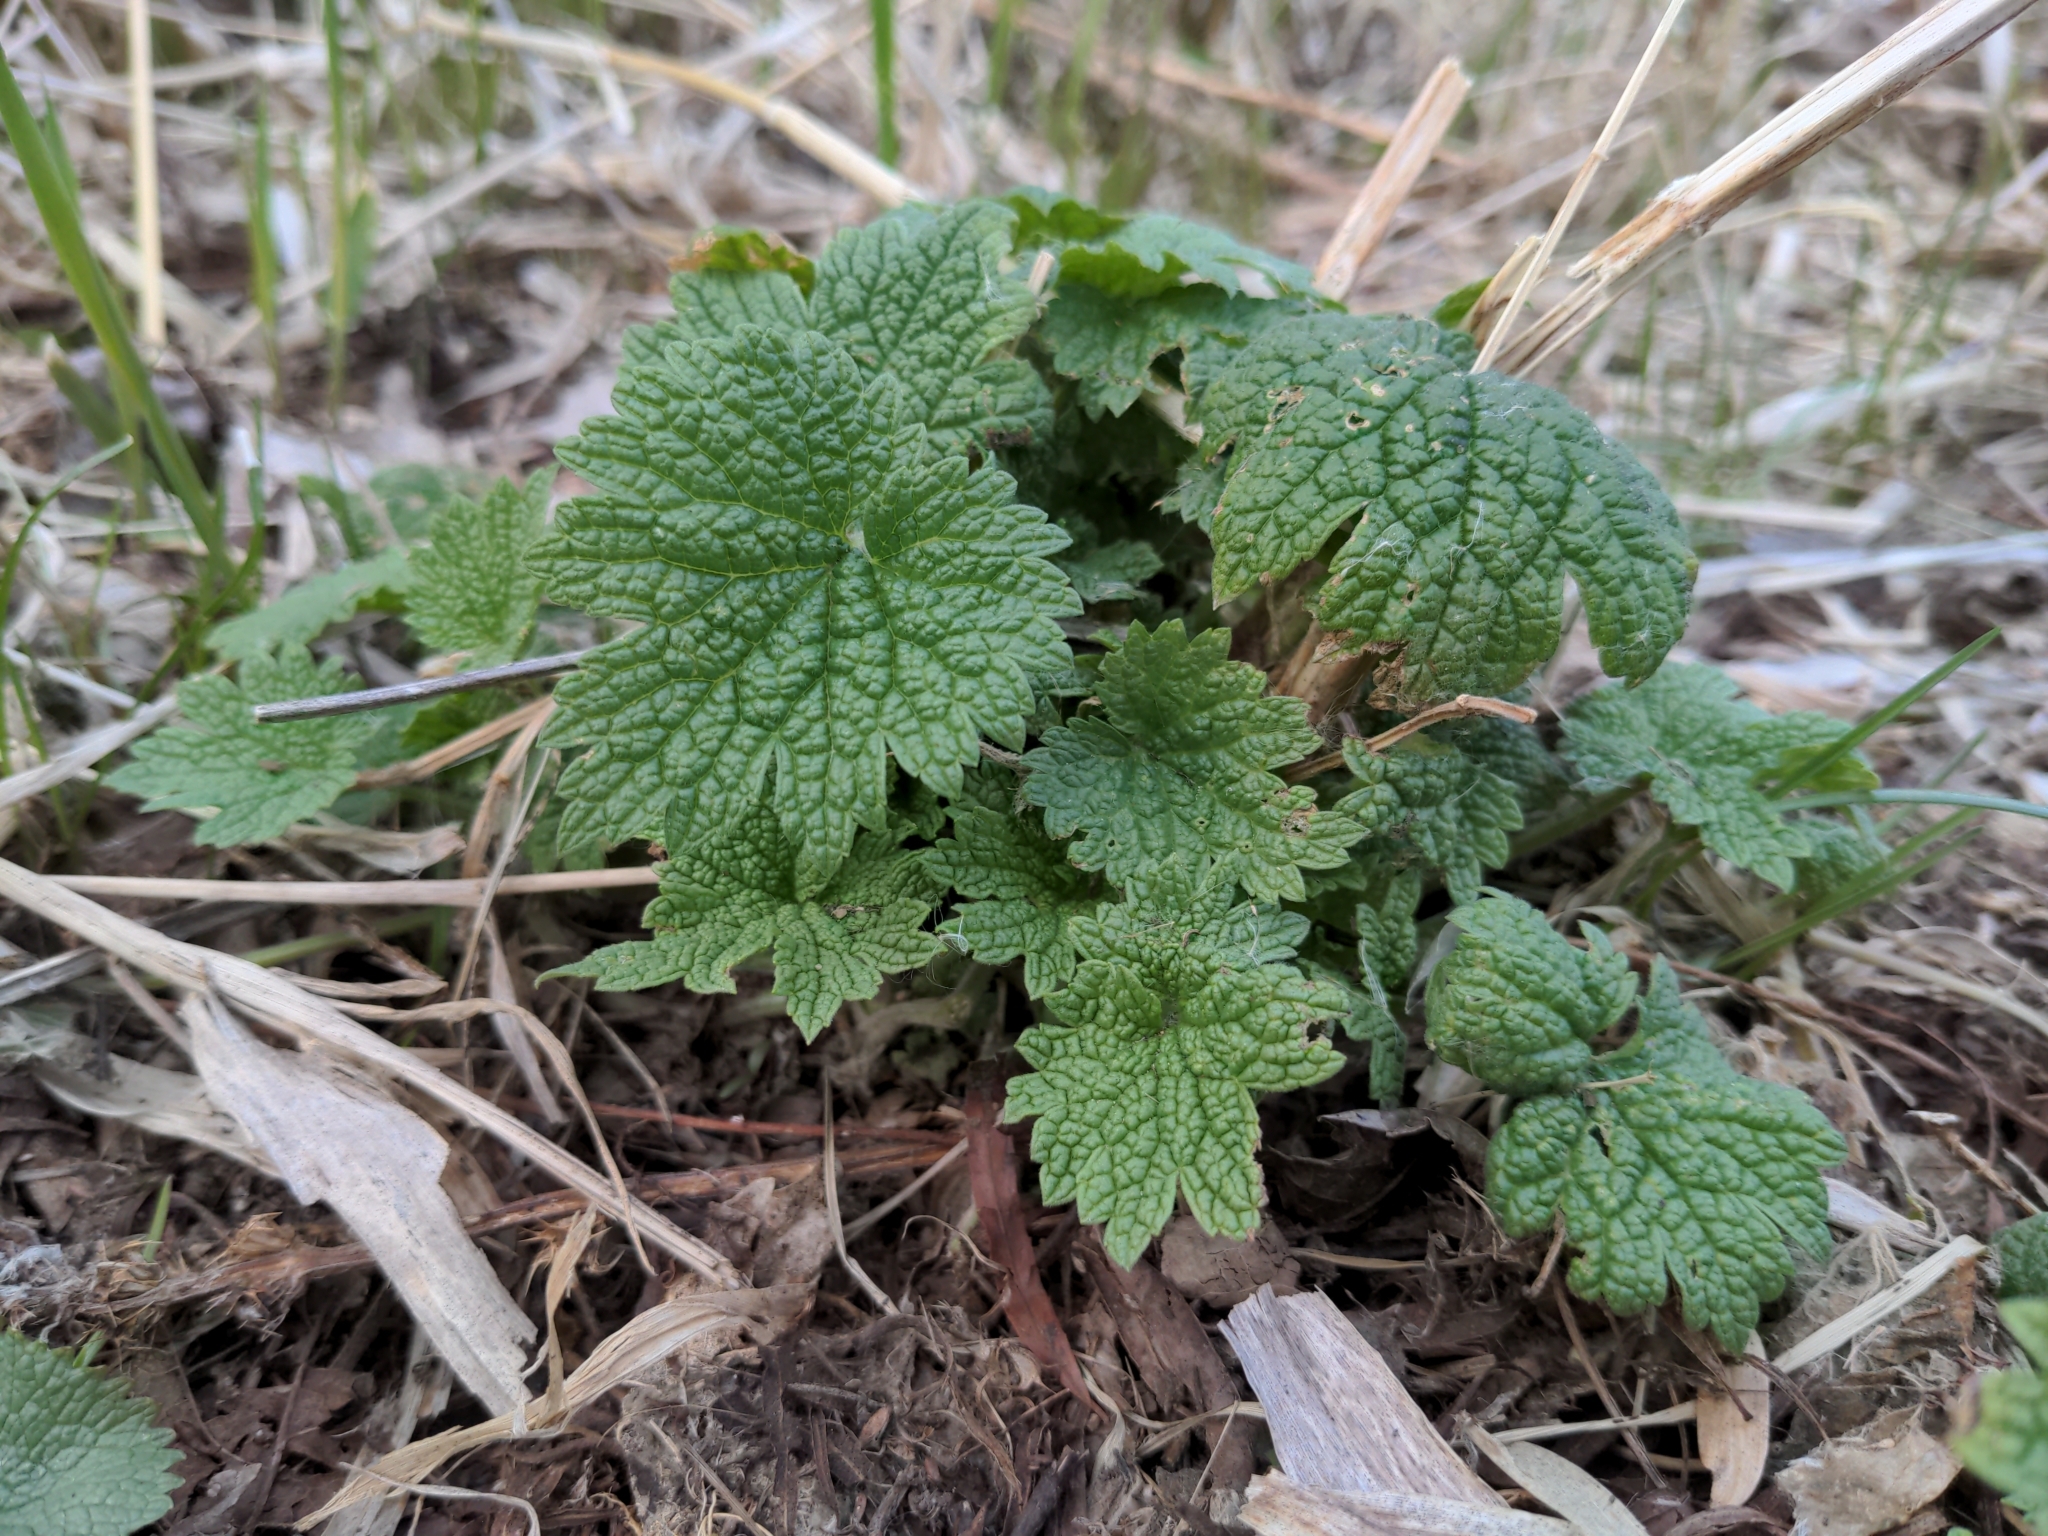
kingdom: Plantae
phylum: Tracheophyta
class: Magnoliopsida
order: Lamiales
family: Lamiaceae
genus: Leonurus
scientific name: Leonurus cardiaca
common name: Motherwort
